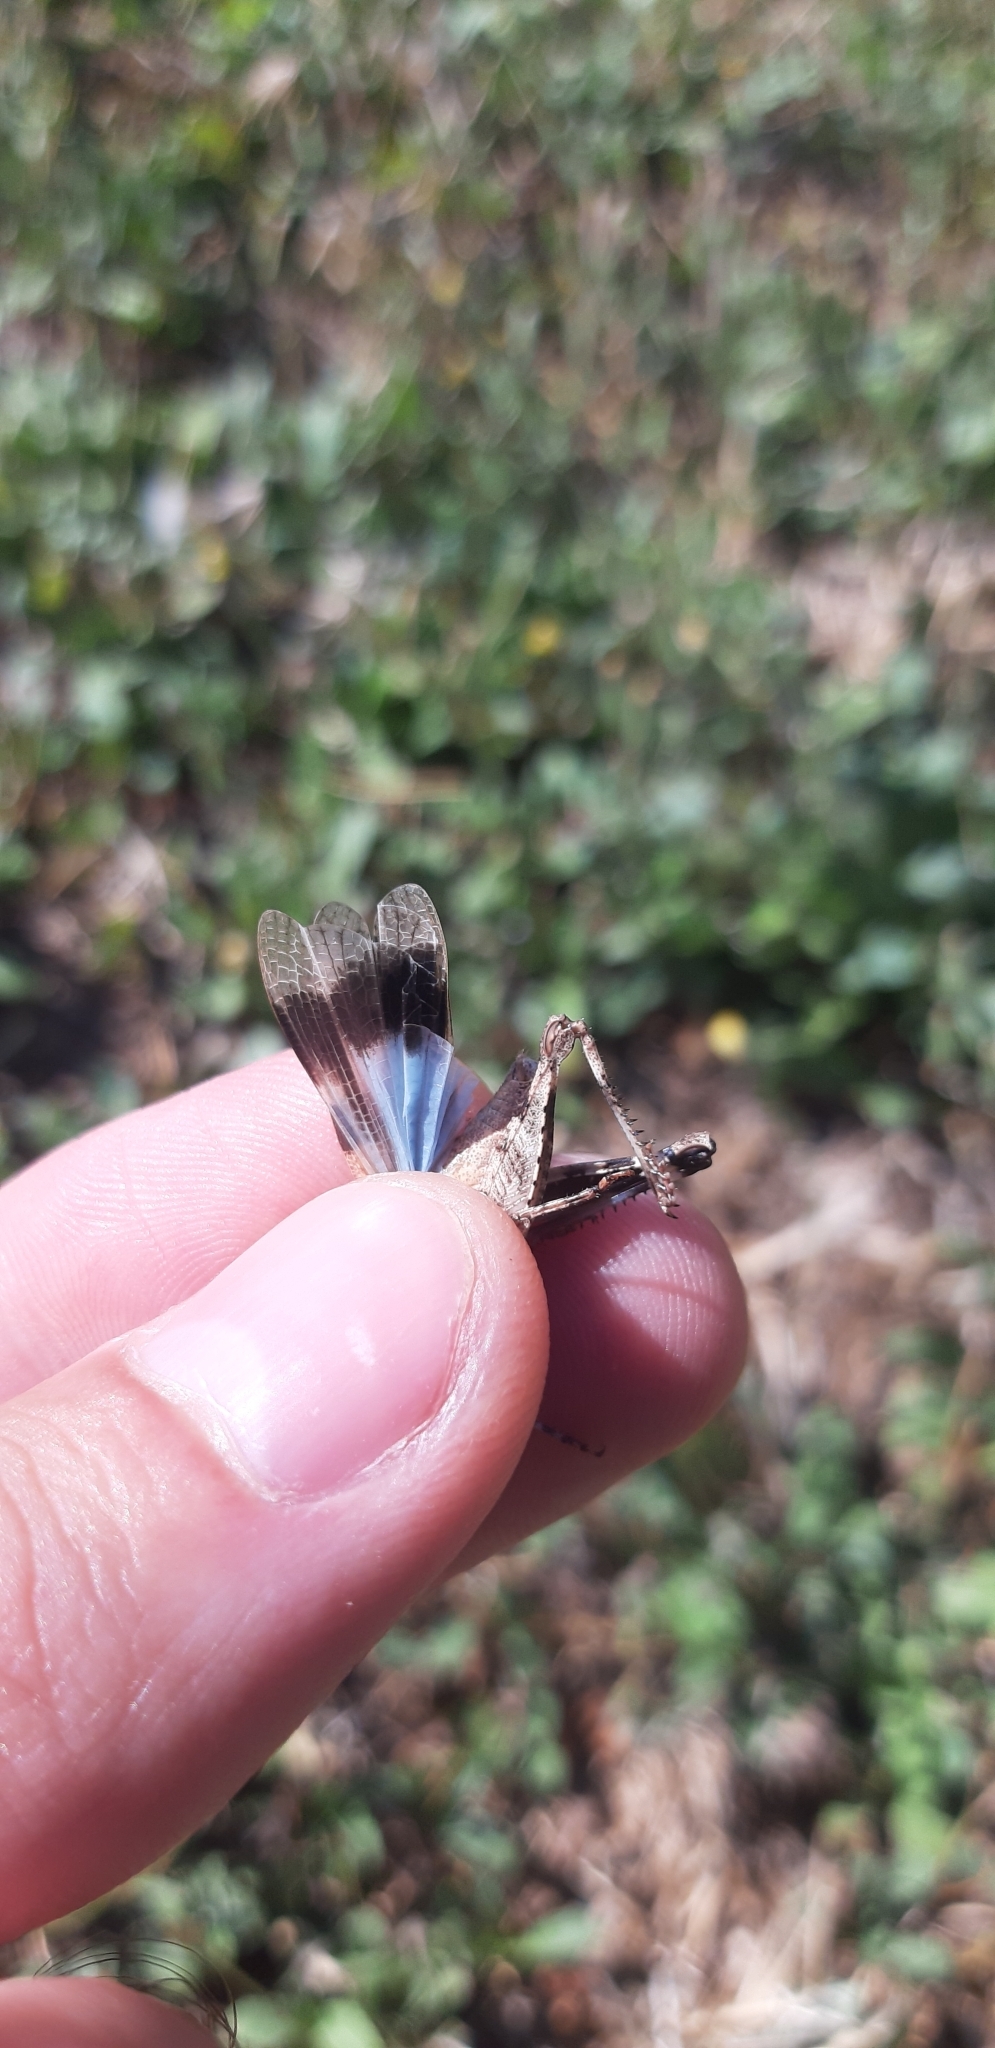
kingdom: Animalia
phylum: Arthropoda
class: Insecta
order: Orthoptera
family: Acrididae
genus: Oedipoda
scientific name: Oedipoda caerulescens
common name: Blue-winged grasshopper
